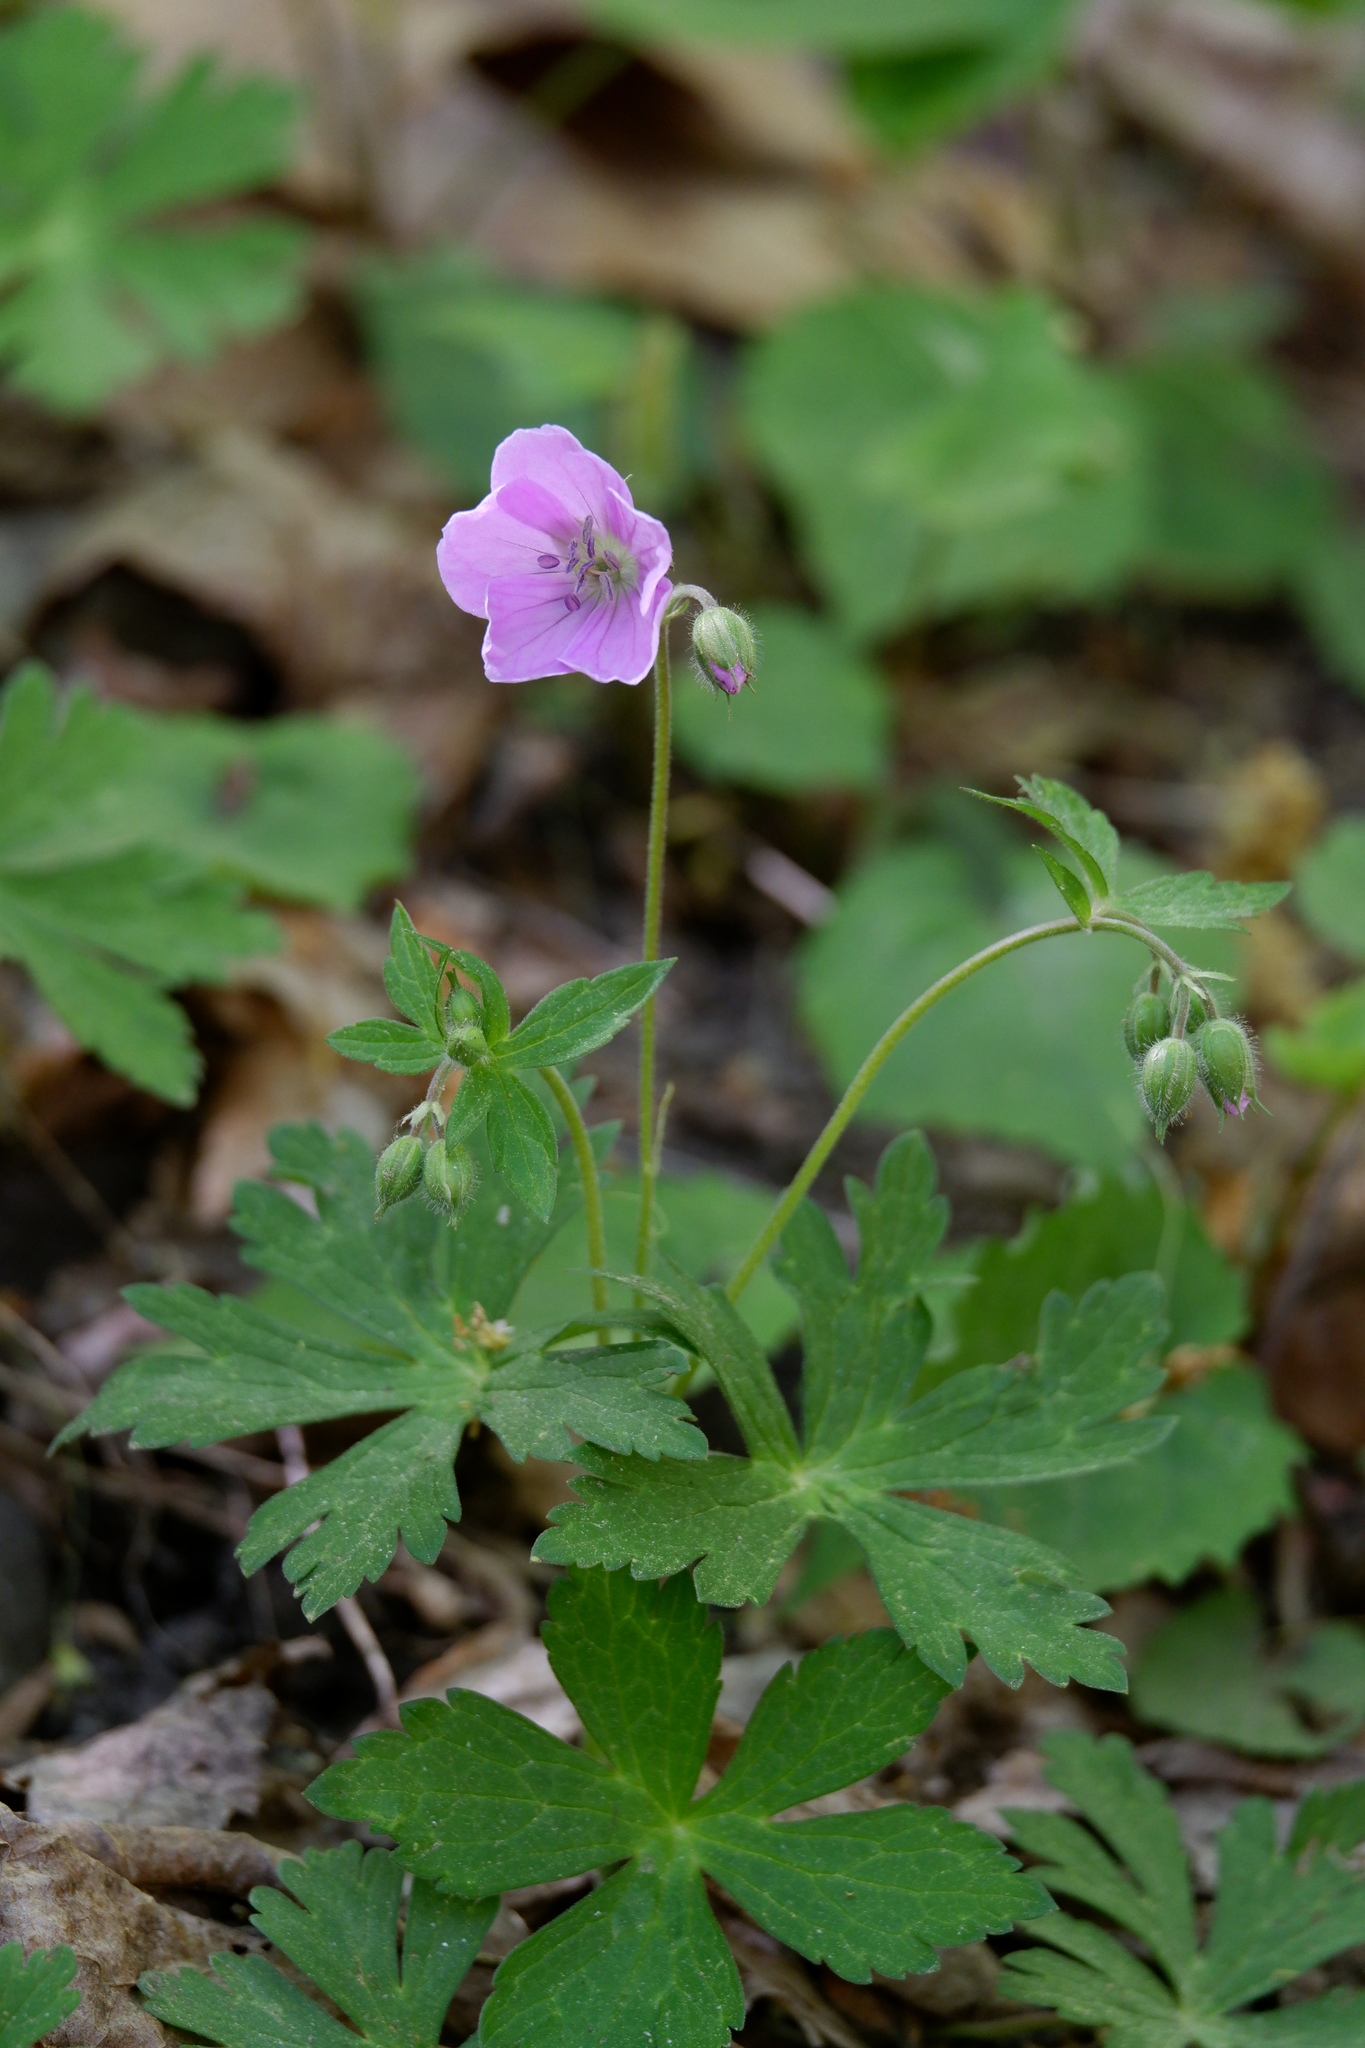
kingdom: Plantae
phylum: Tracheophyta
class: Magnoliopsida
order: Geraniales
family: Geraniaceae
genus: Geranium
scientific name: Geranium maculatum
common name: Spotted geranium
